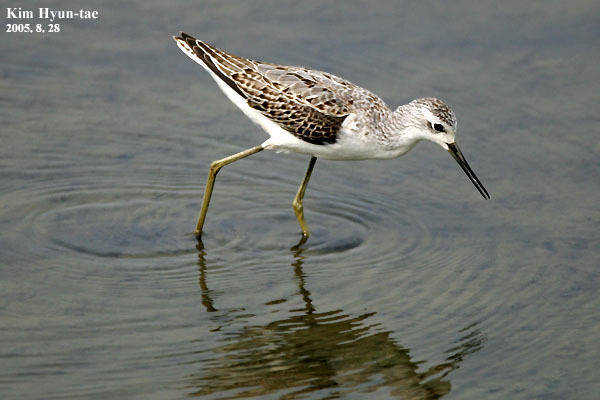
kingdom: Animalia
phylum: Chordata
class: Aves
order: Charadriiformes
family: Scolopacidae
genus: Tringa
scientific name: Tringa stagnatilis
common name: Marsh sandpiper
